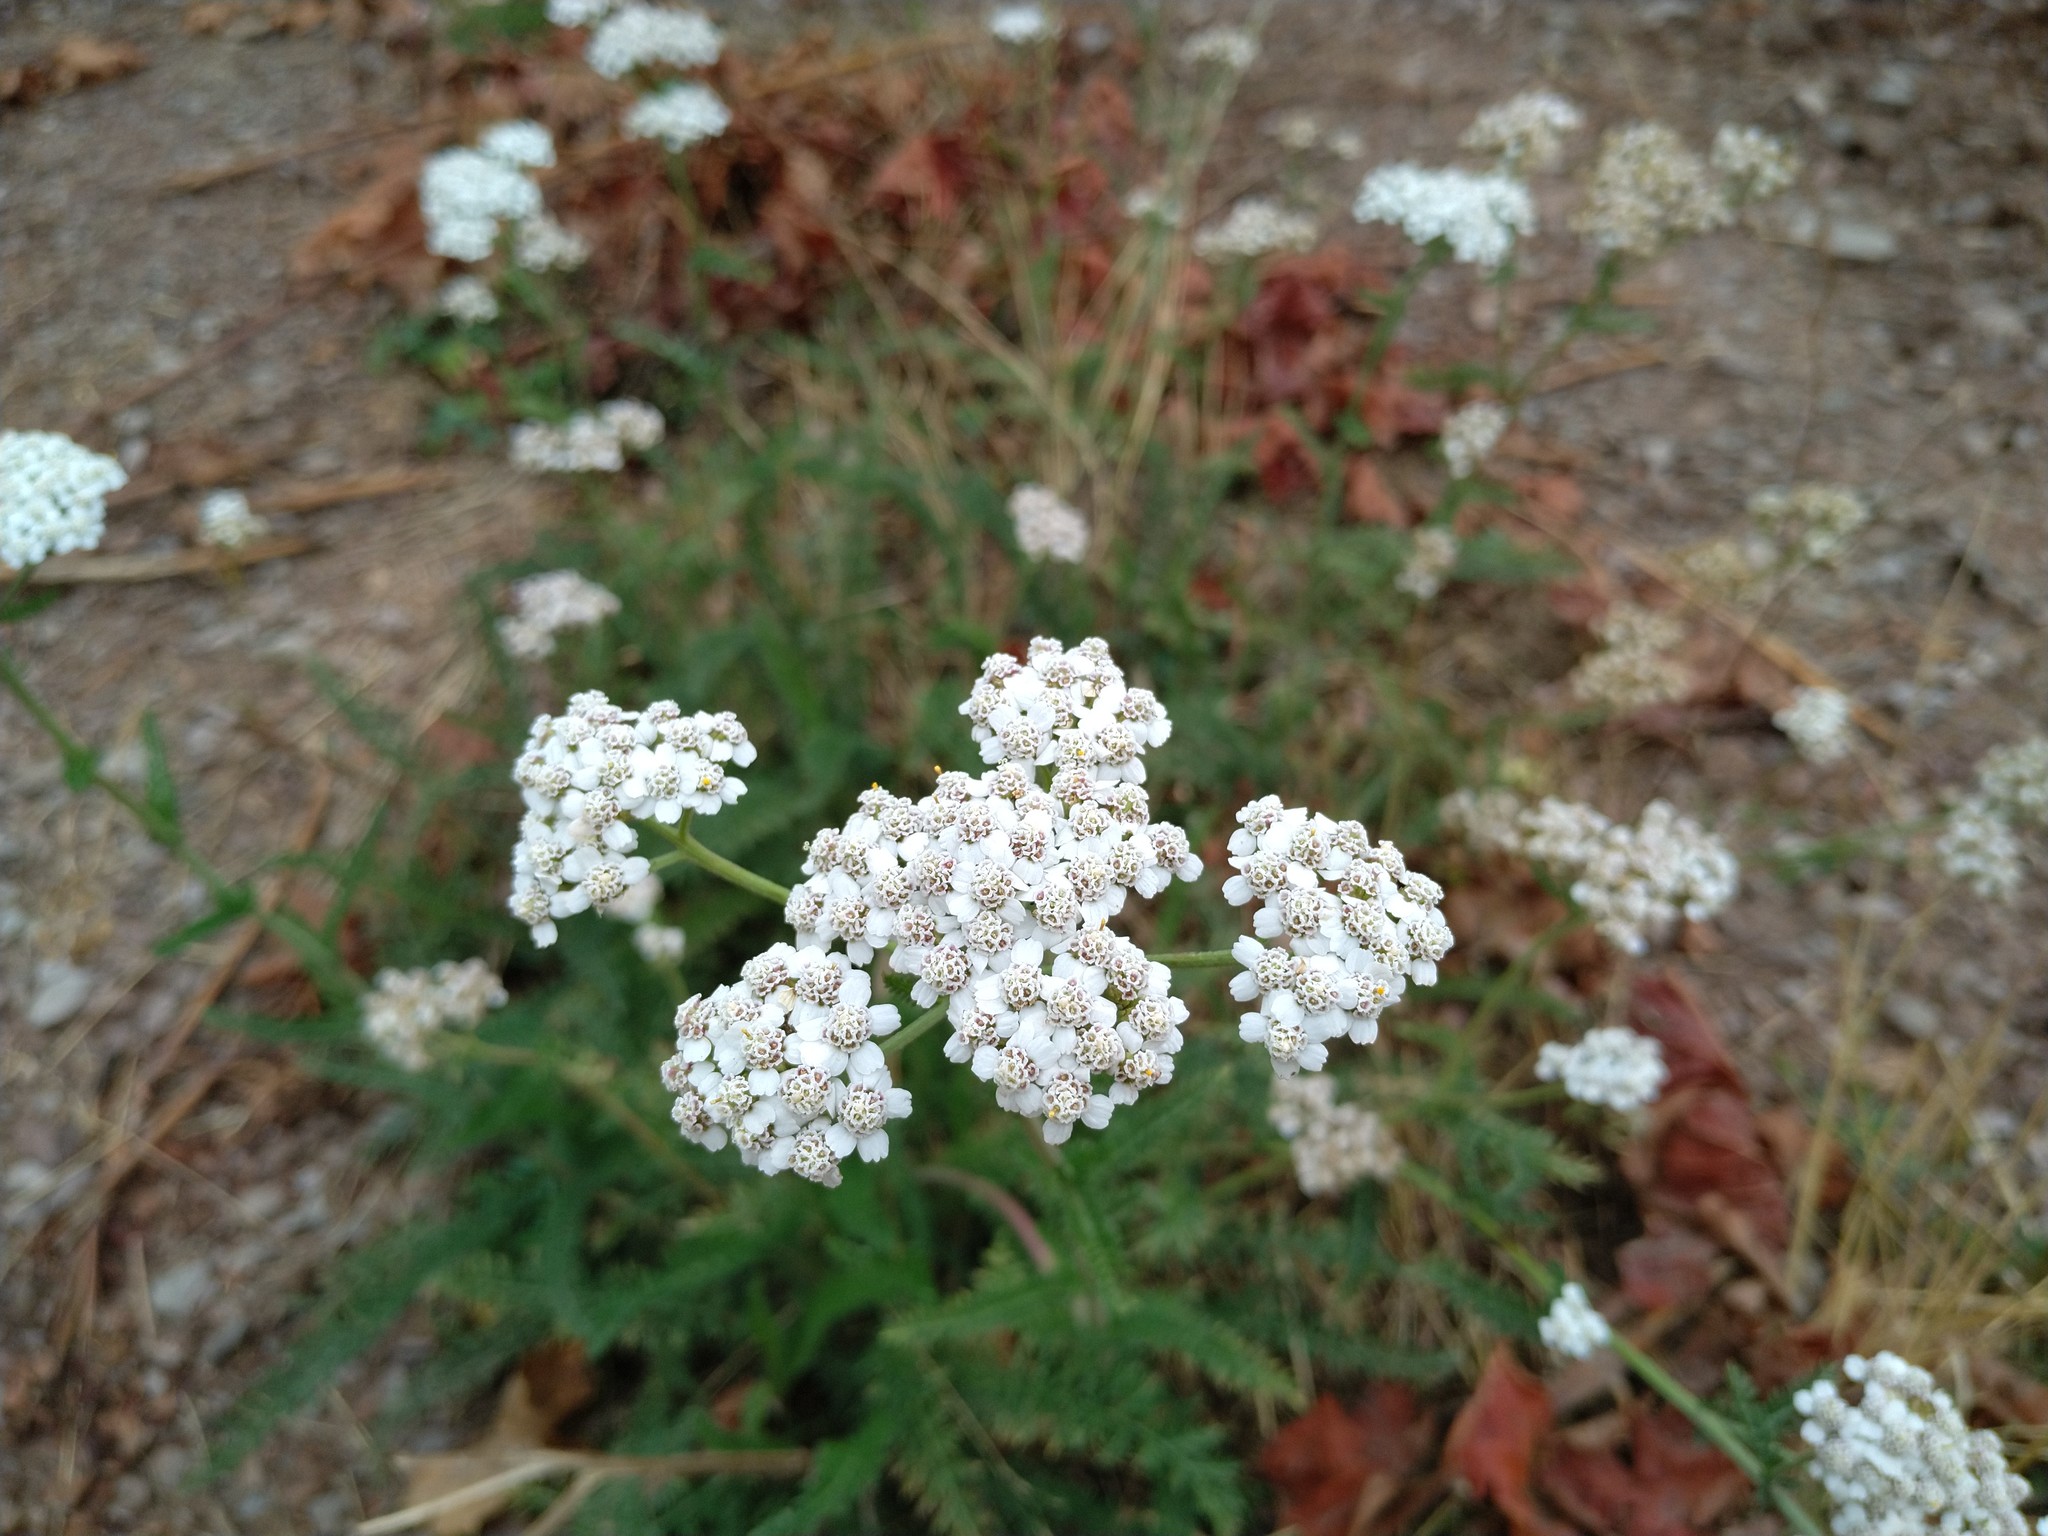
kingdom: Plantae
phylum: Tracheophyta
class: Magnoliopsida
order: Asterales
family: Asteraceae
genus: Achillea
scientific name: Achillea millefolium
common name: Yarrow
